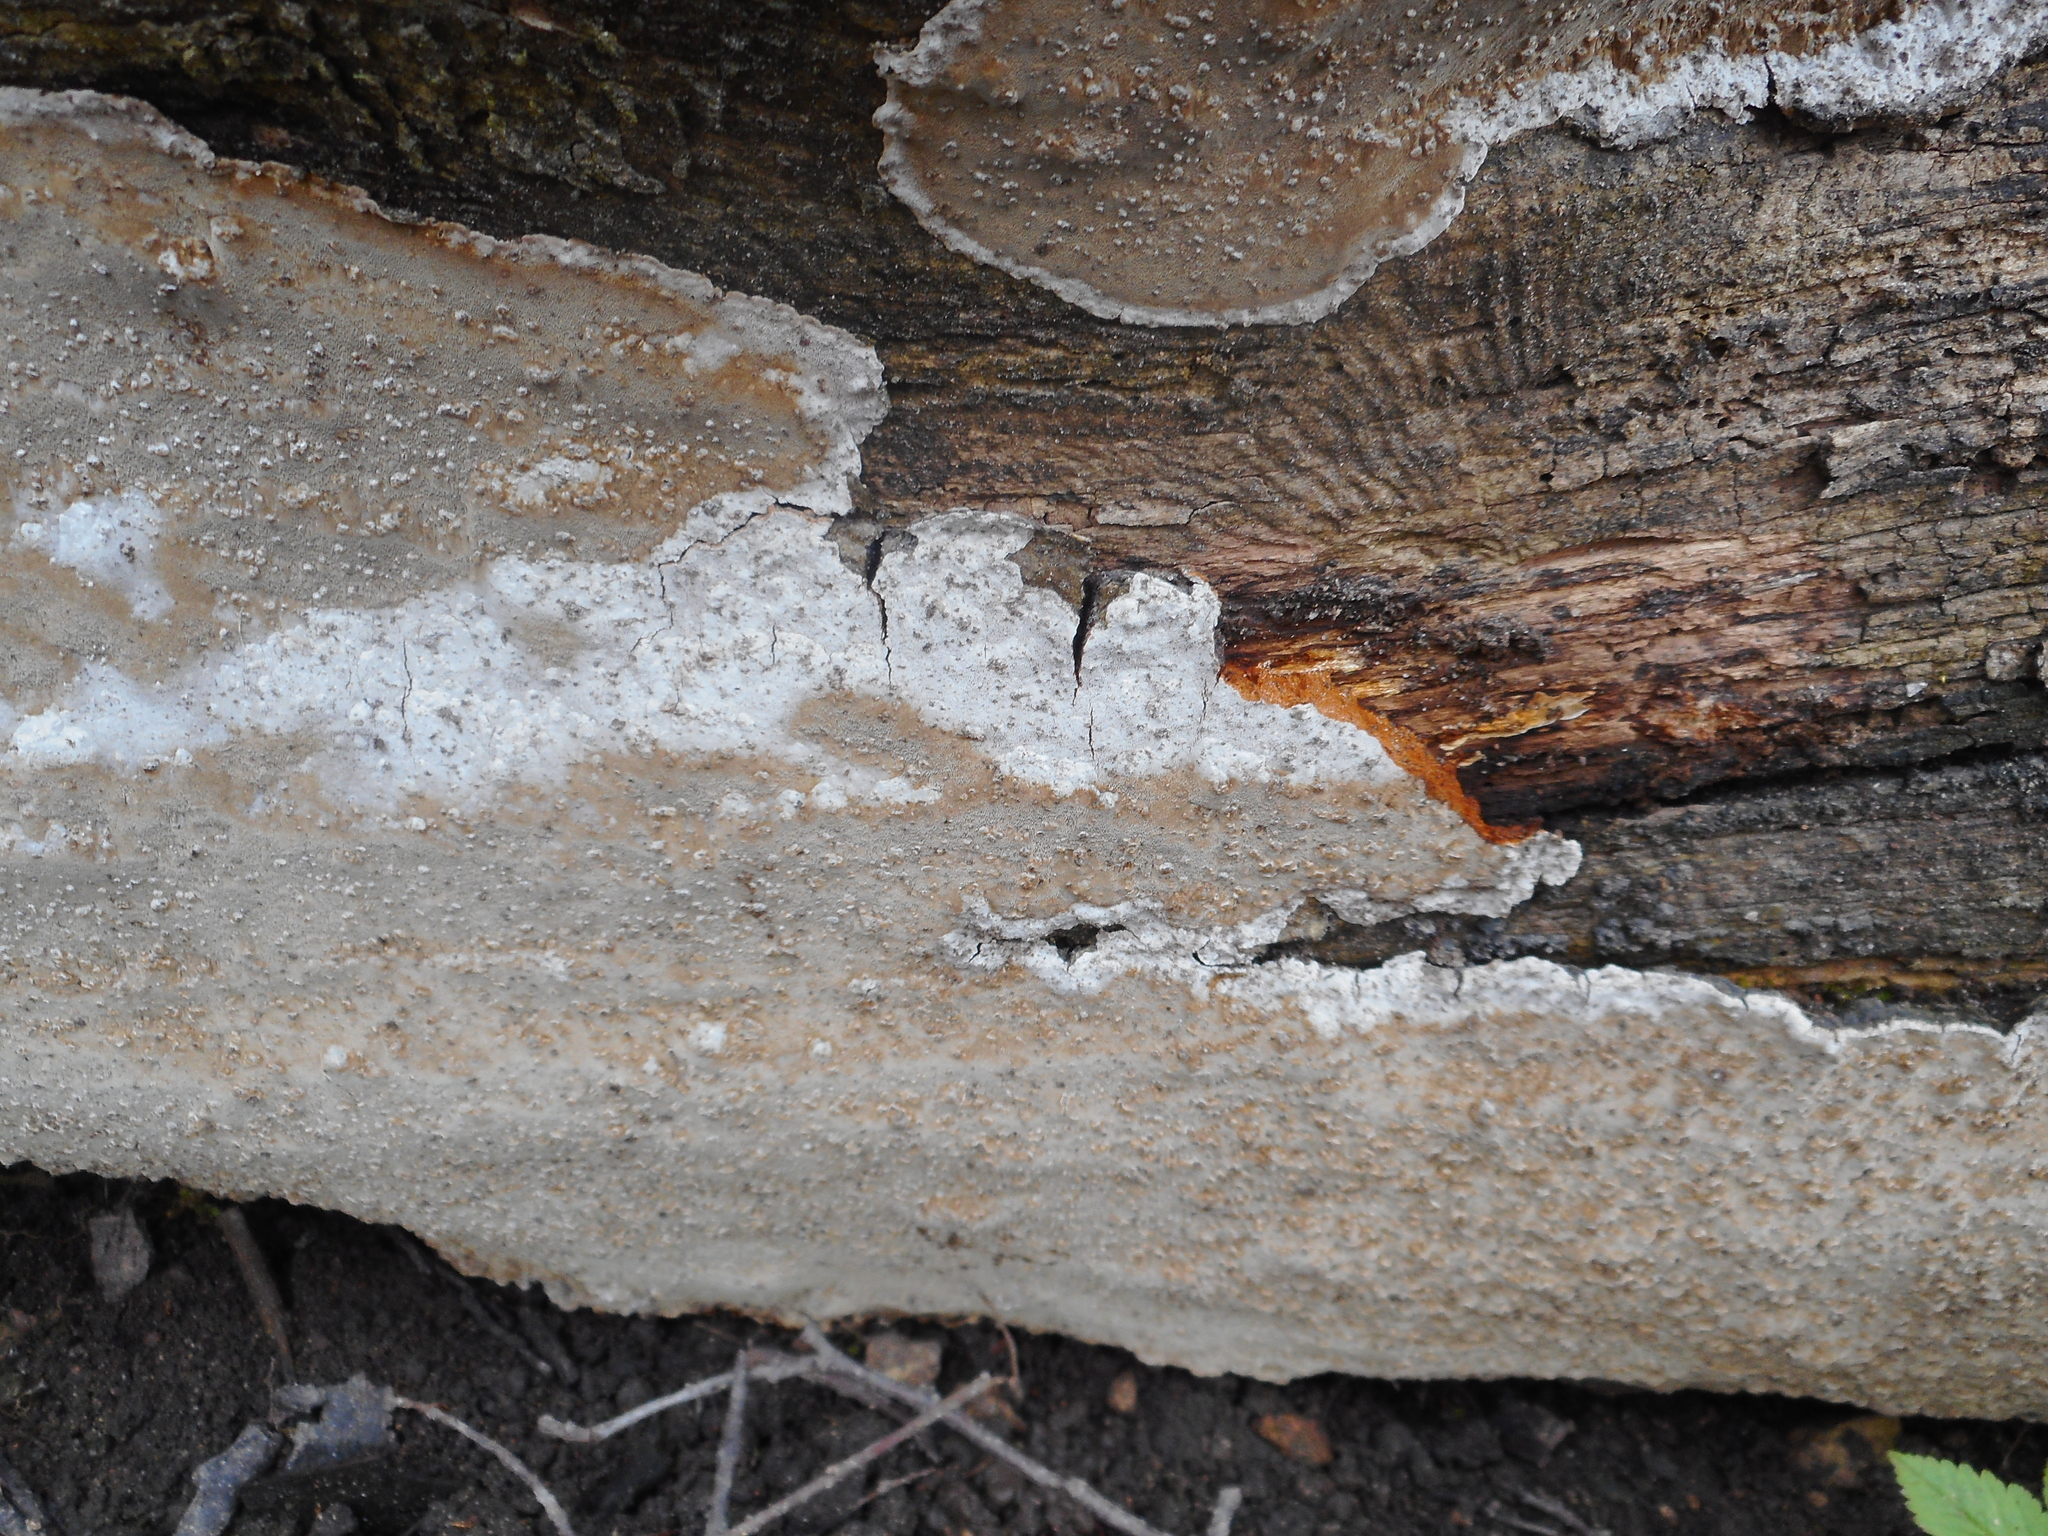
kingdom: Fungi
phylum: Basidiomycota
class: Agaricomycetes
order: Hymenochaetales
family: Hymenochaetaceae
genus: Phellinus
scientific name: Phellinus laevigatus
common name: Smooth bristle bracket
